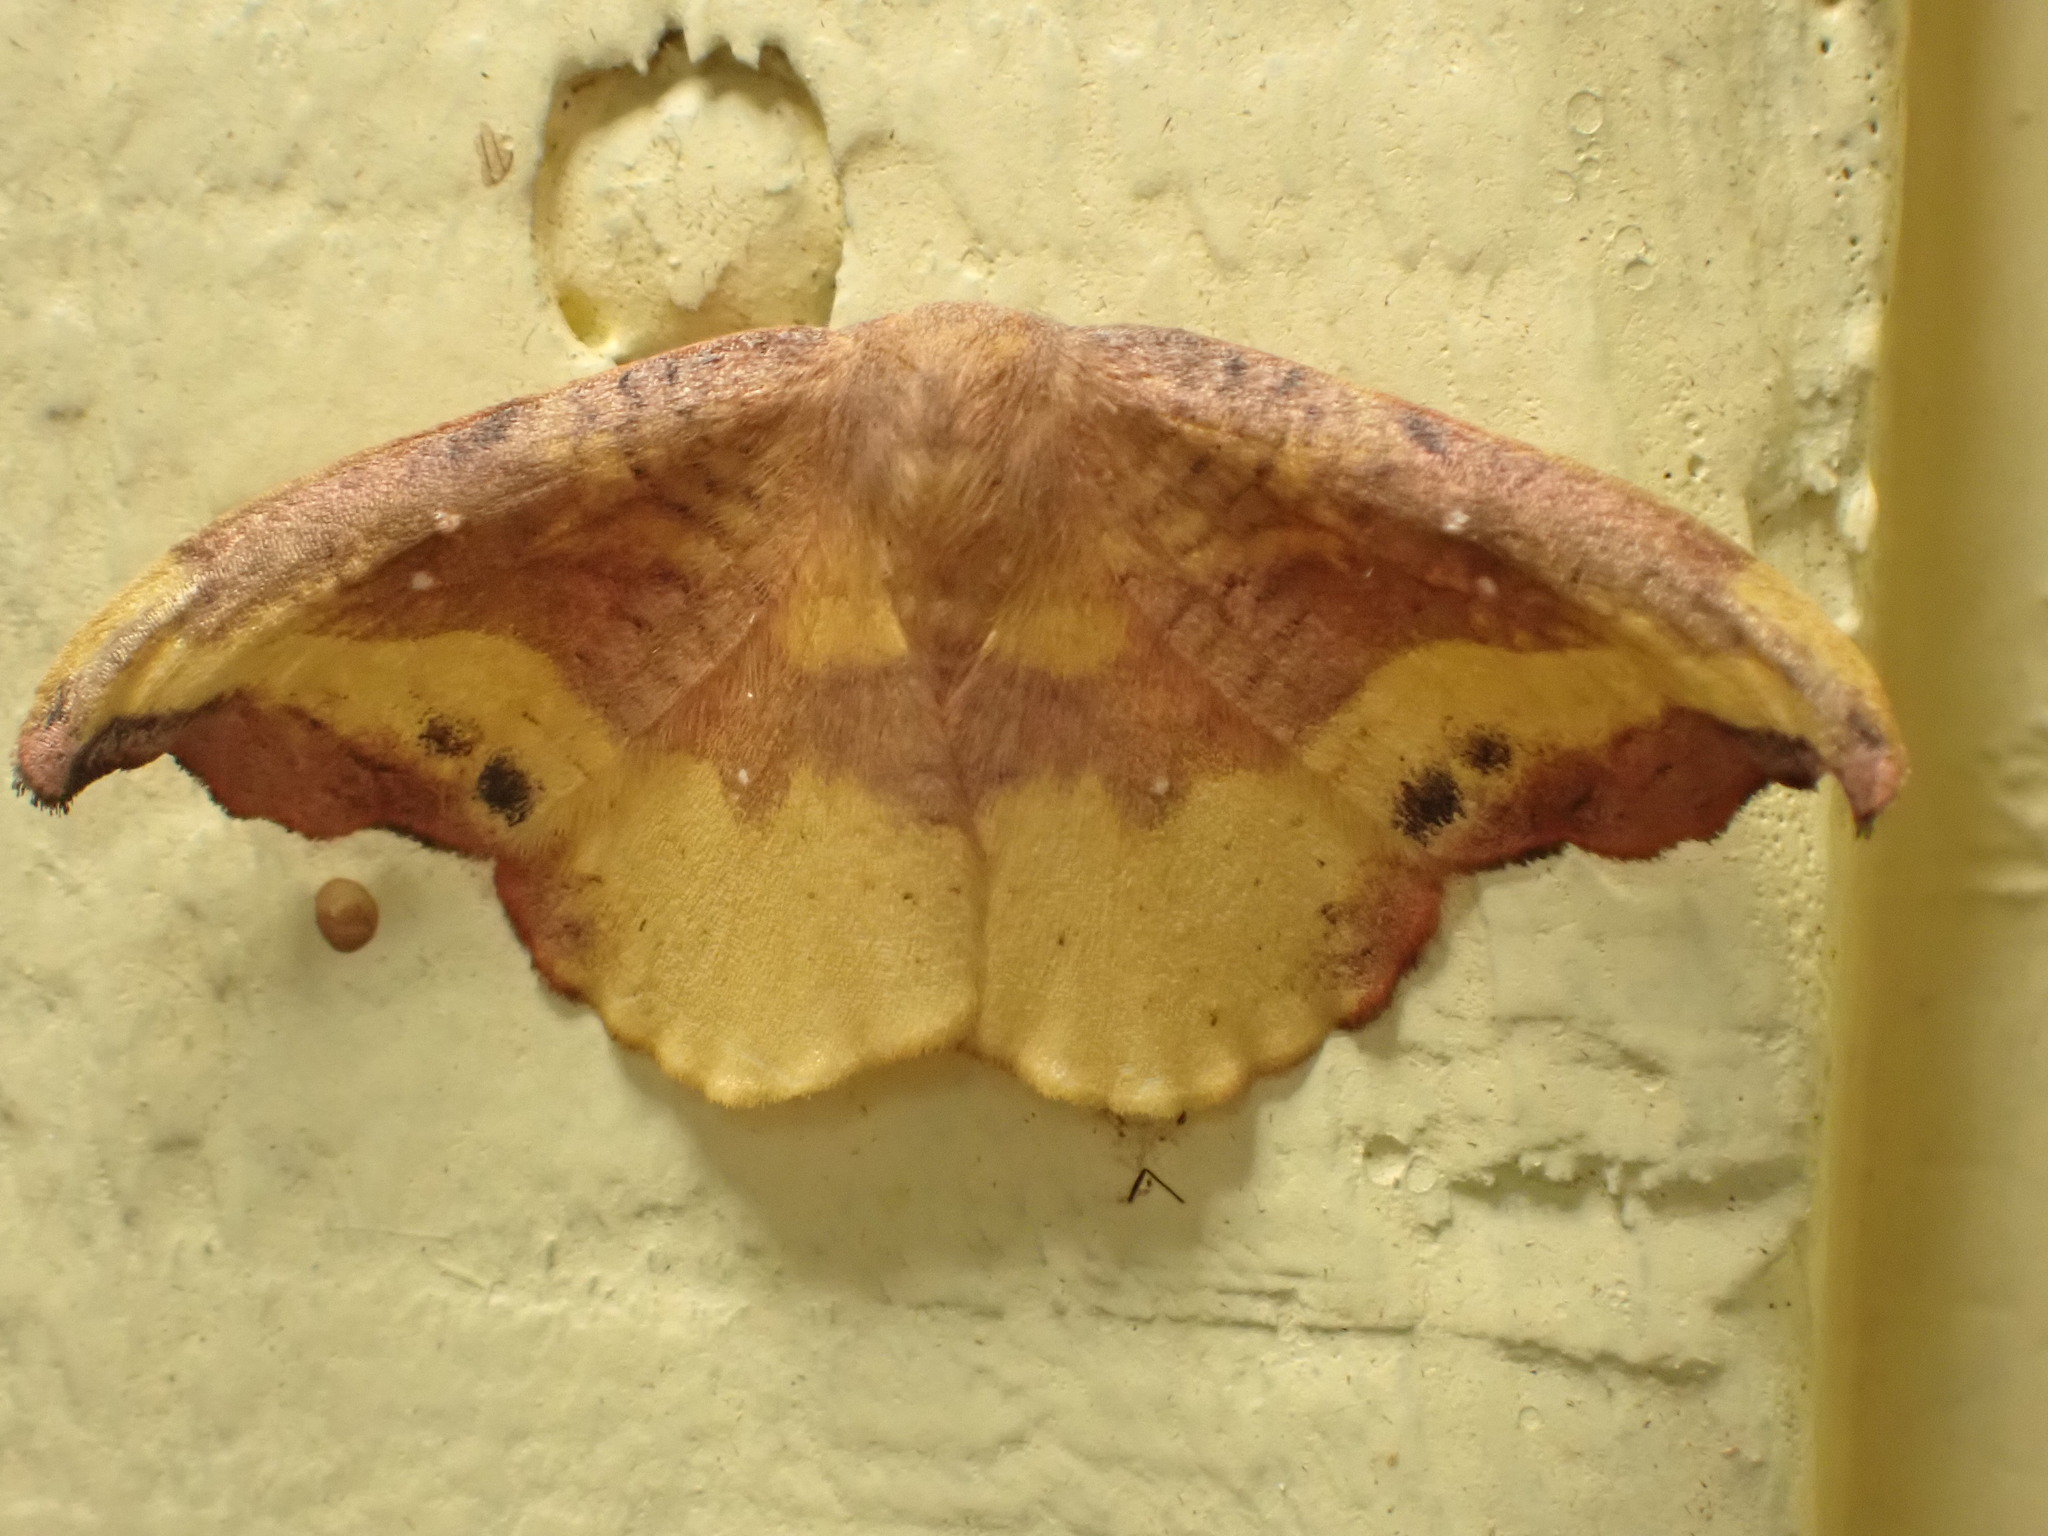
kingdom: Animalia
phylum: Arthropoda
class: Insecta
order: Lepidoptera
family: Drepanidae
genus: Oreta
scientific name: Oreta rosea
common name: Rose hooktip
